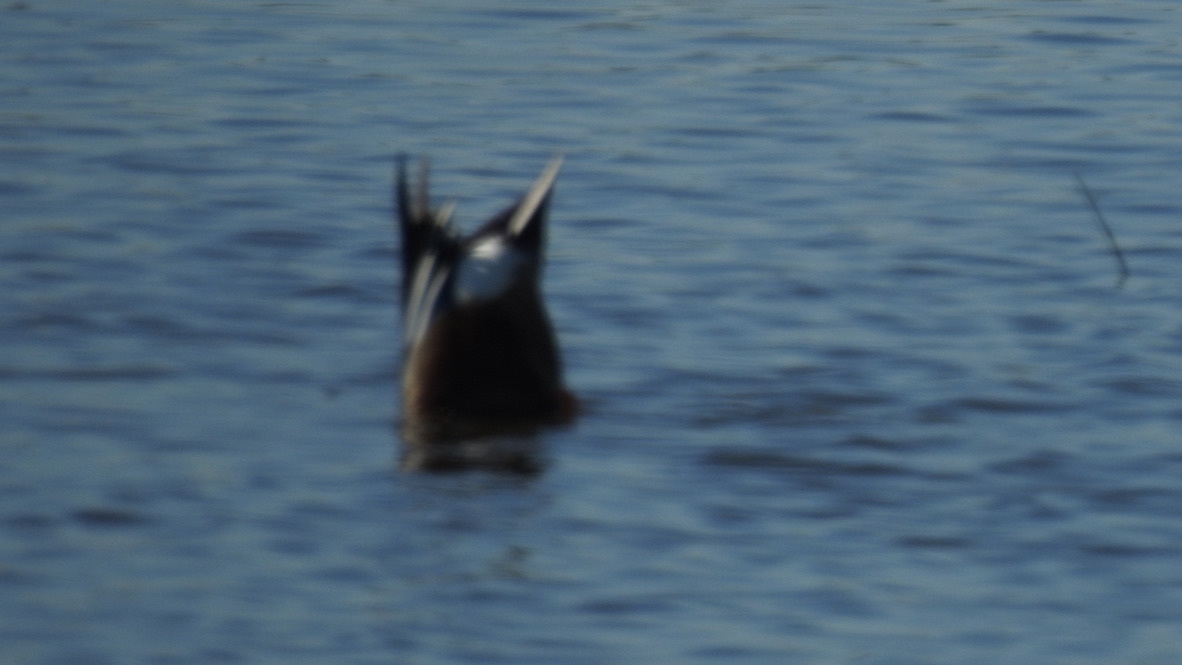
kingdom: Animalia
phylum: Chordata
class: Aves
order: Anseriformes
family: Anatidae
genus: Spatula
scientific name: Spatula clypeata
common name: Northern shoveler
